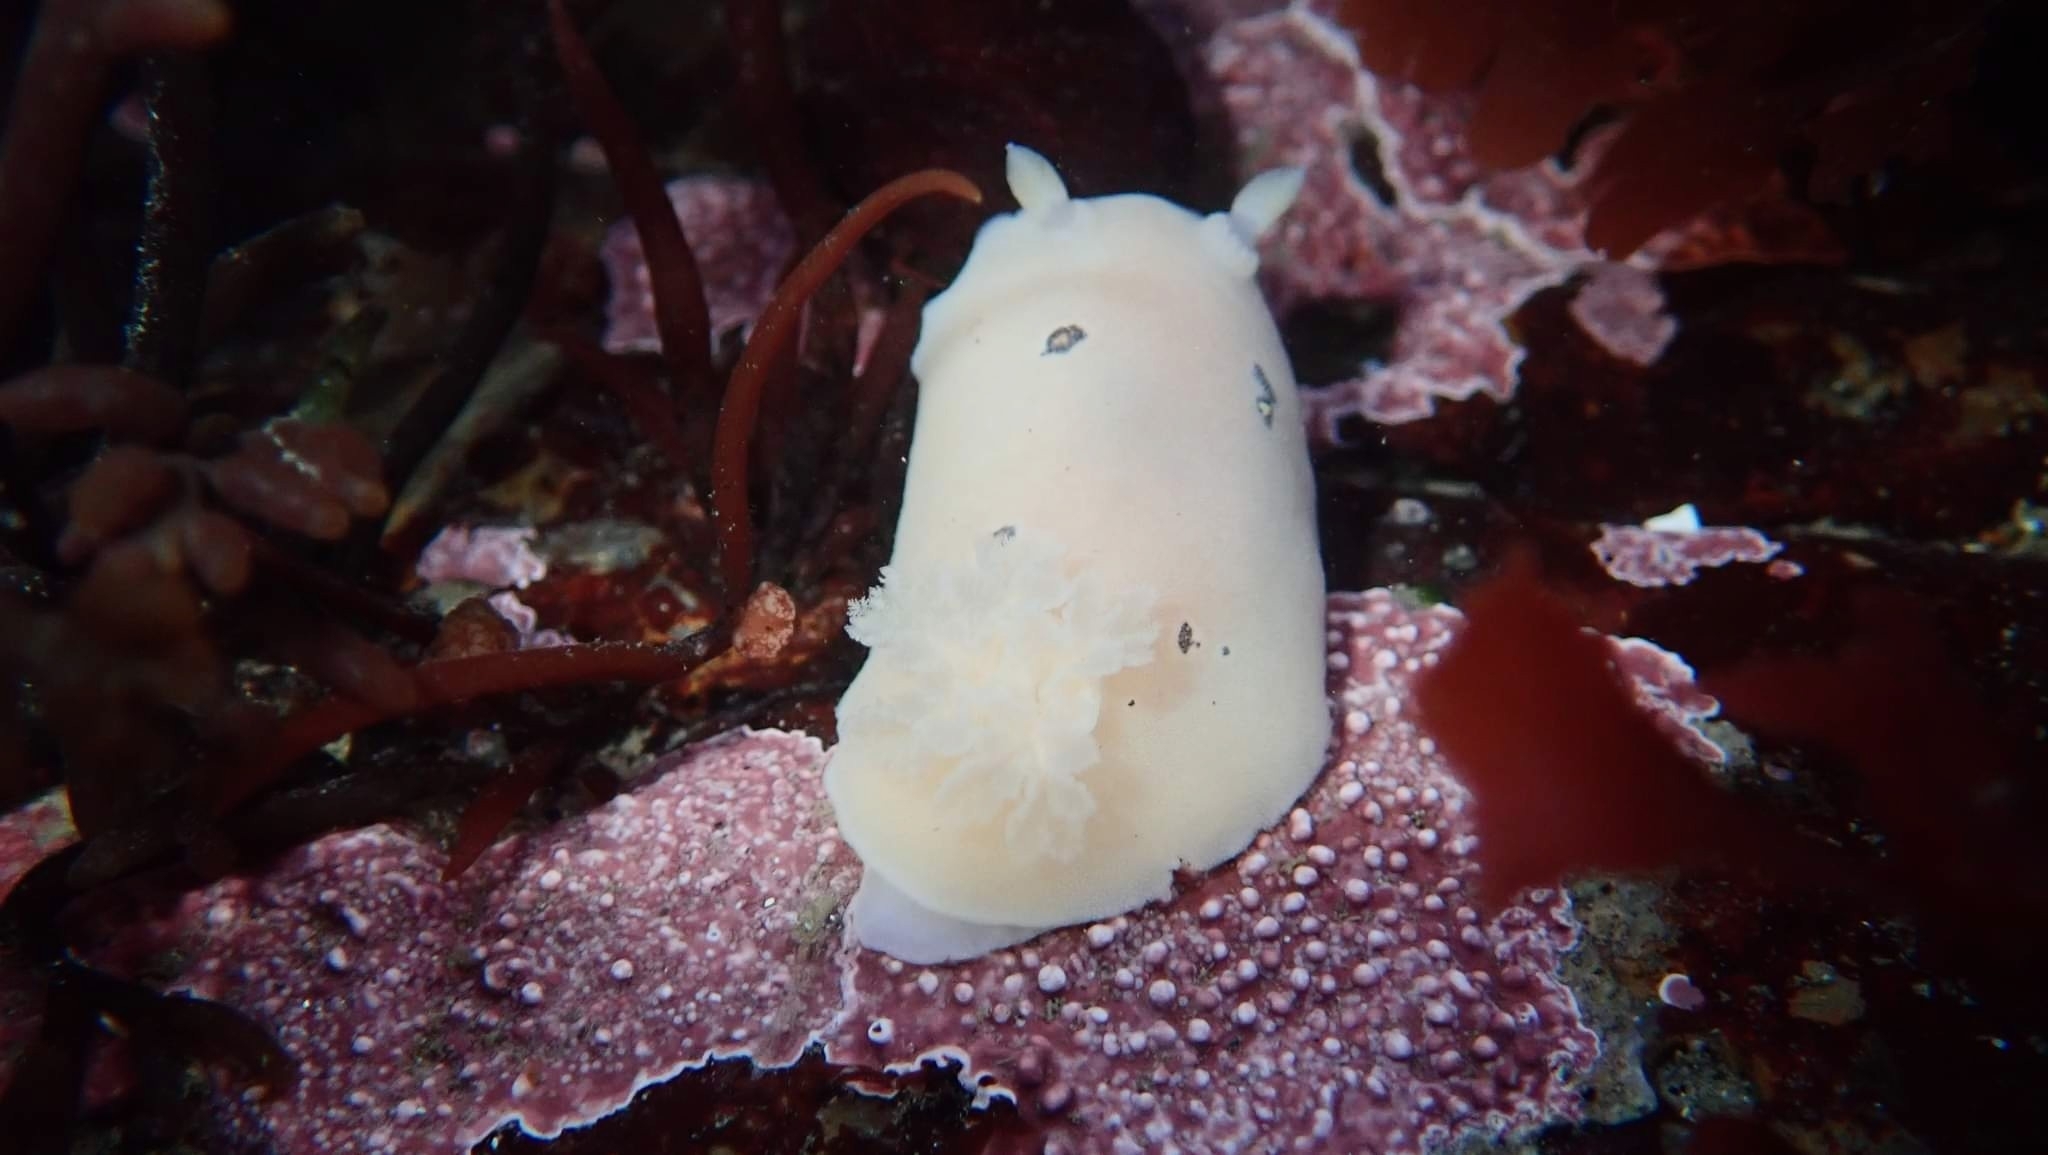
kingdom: Animalia
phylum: Mollusca
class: Gastropoda
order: Nudibranchia
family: Discodorididae
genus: Diaulula
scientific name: Diaulula sandiegensis
